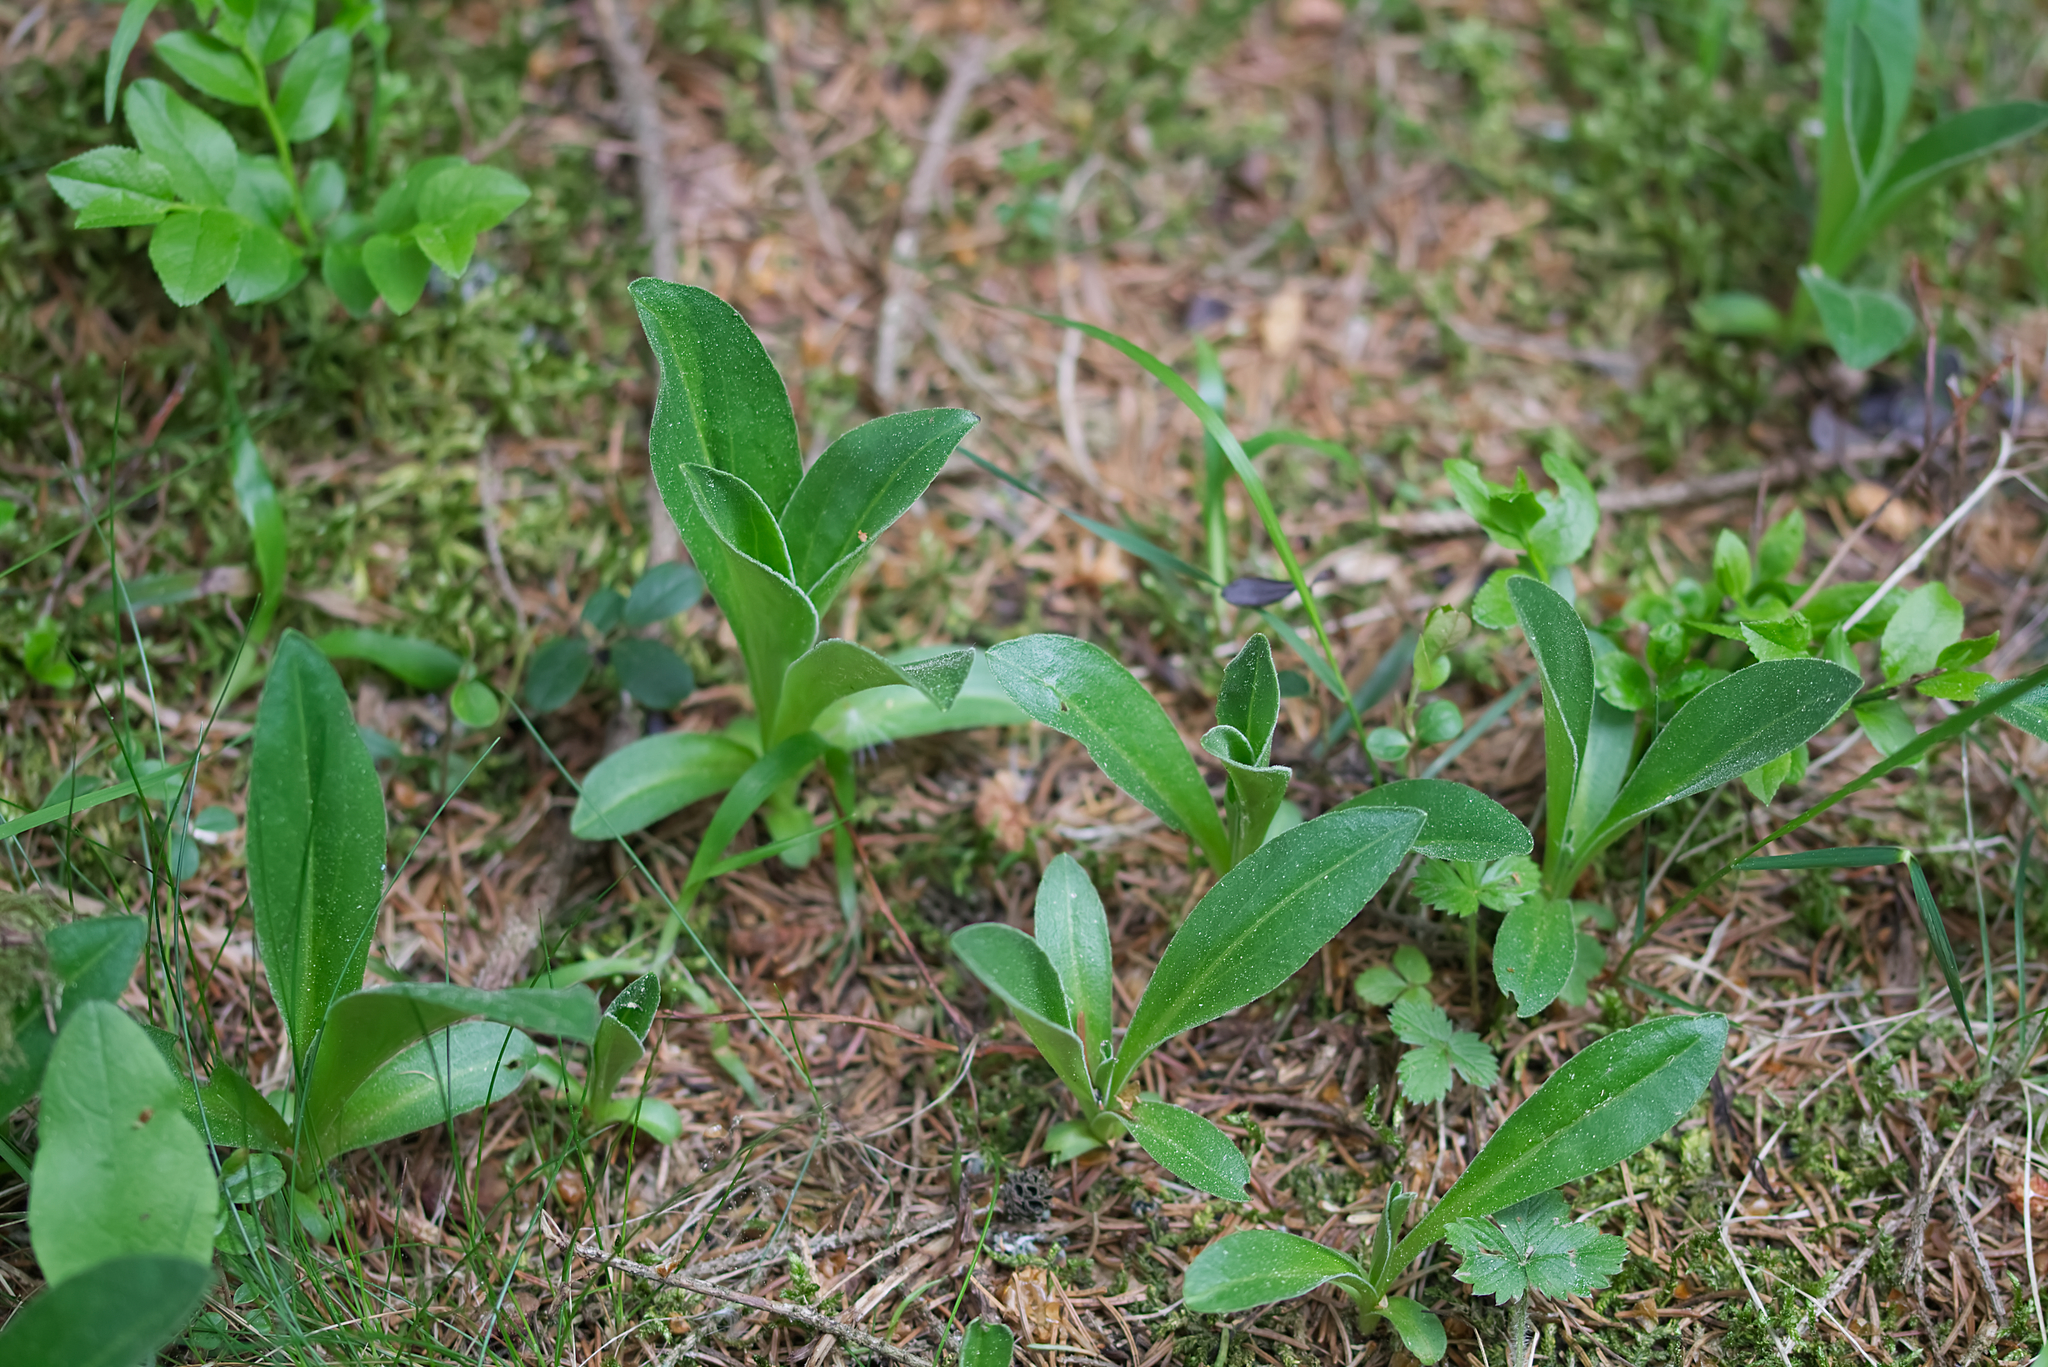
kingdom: Plantae
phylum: Tracheophyta
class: Magnoliopsida
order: Asterales
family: Asteraceae
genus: Arnica
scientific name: Arnica montana
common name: Leopard's bane
